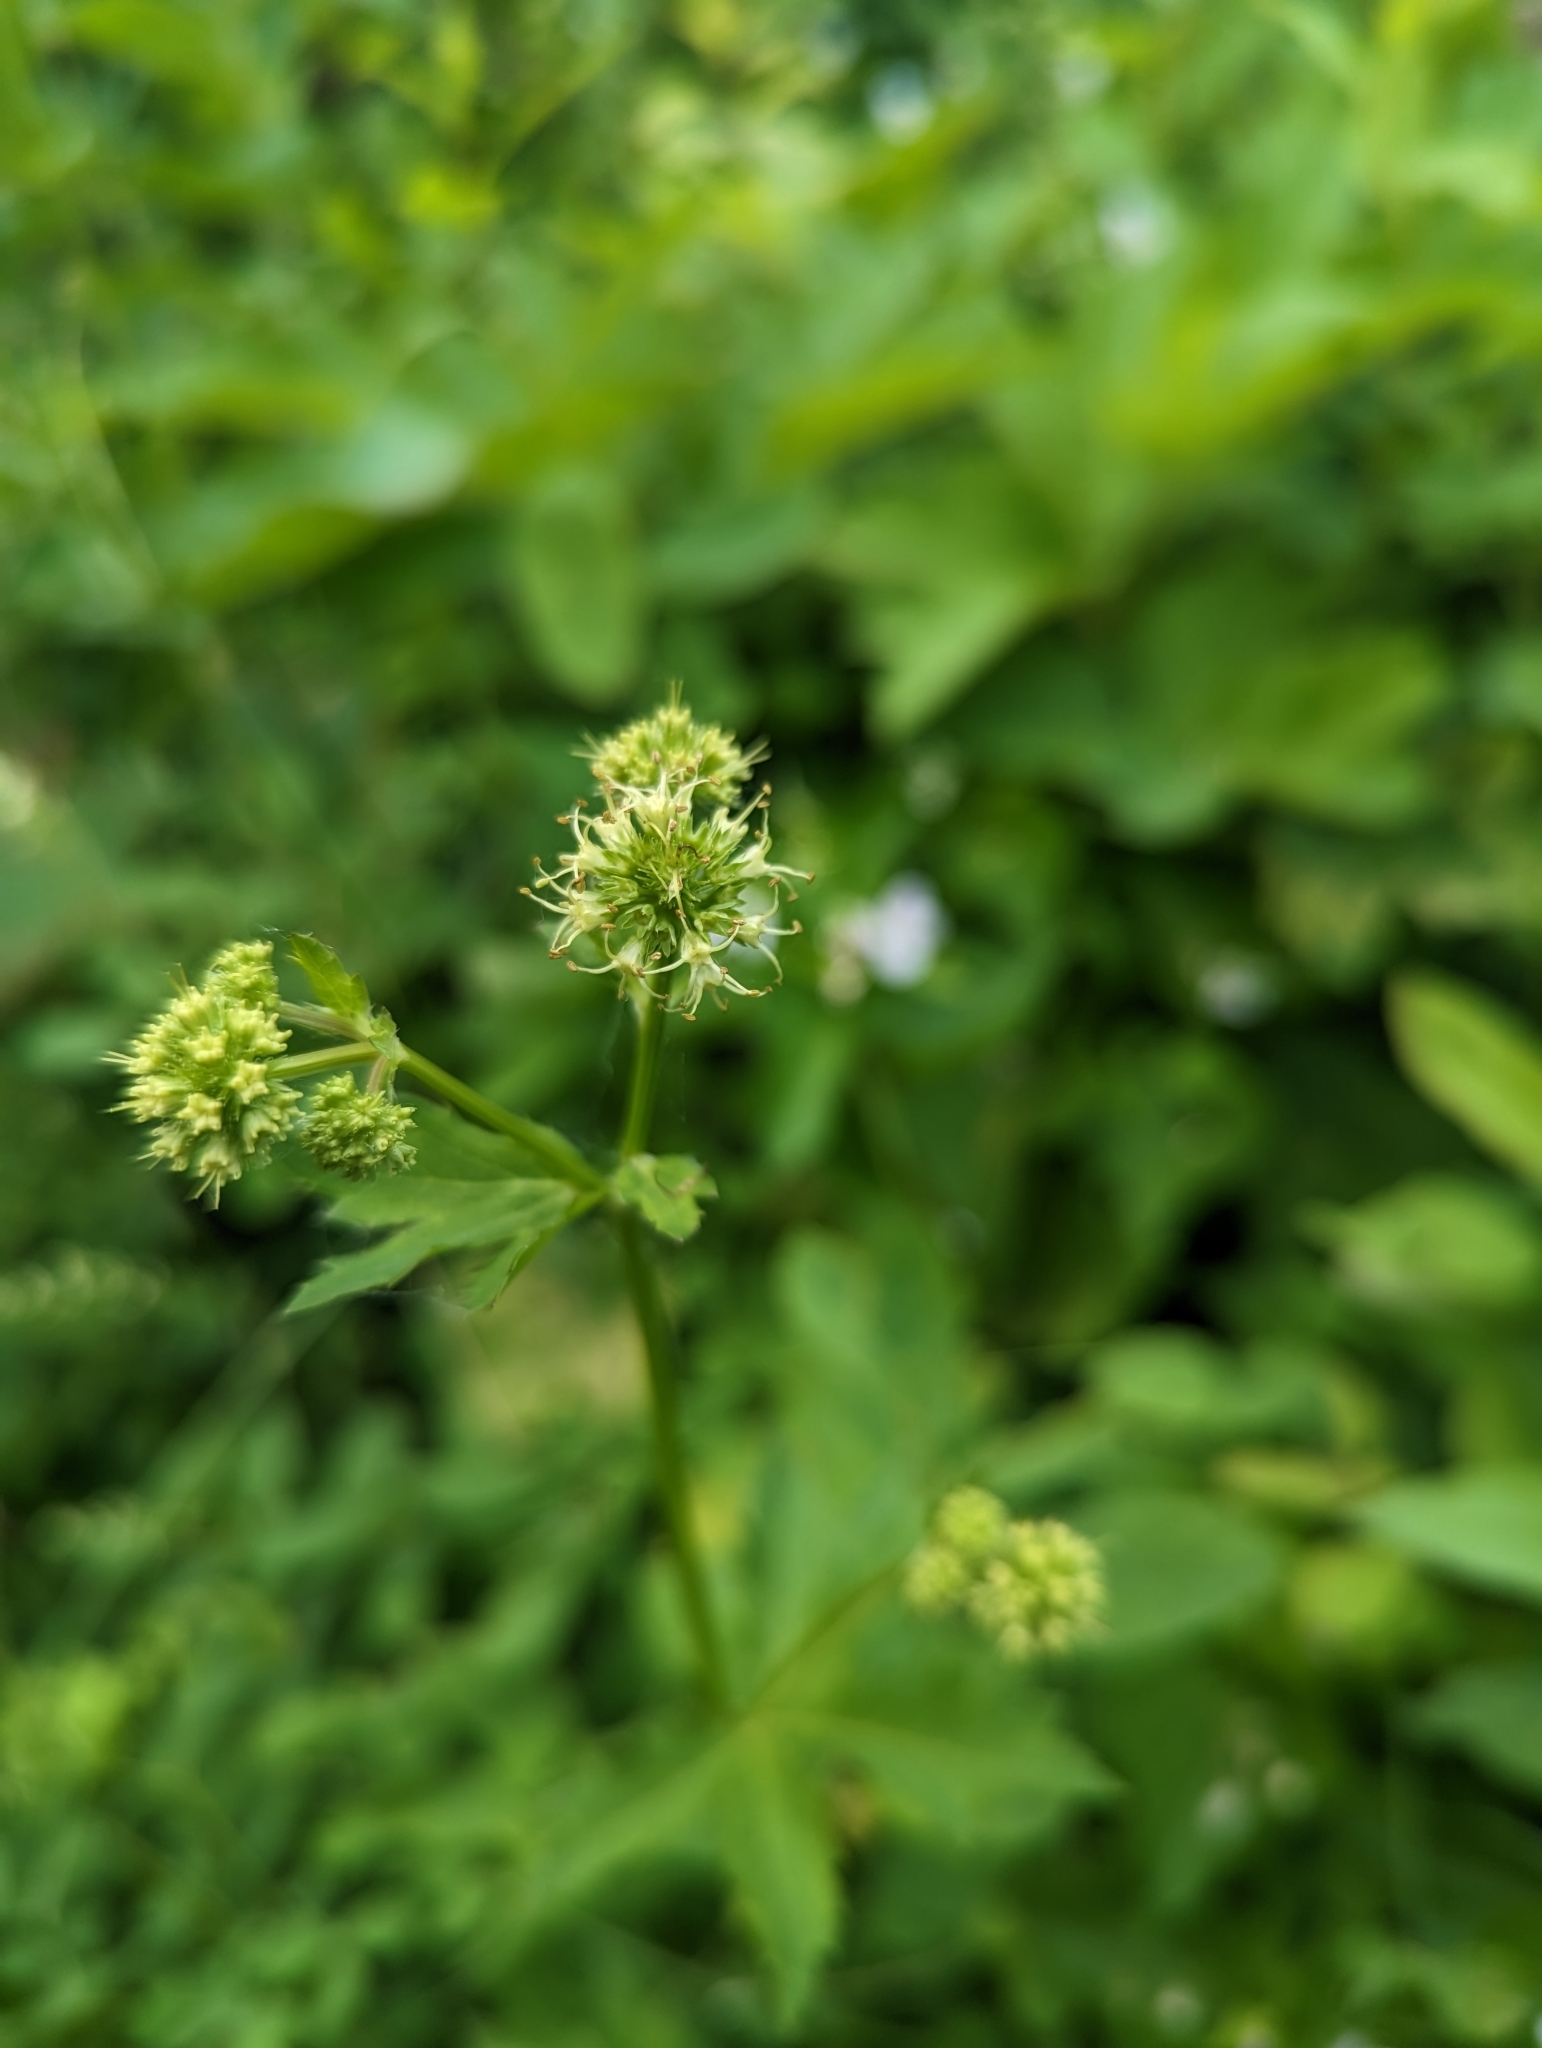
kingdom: Plantae
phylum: Tracheophyta
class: Magnoliopsida
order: Apiales
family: Apiaceae
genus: Sanicula
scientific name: Sanicula marilandica
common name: Black snakeroot
